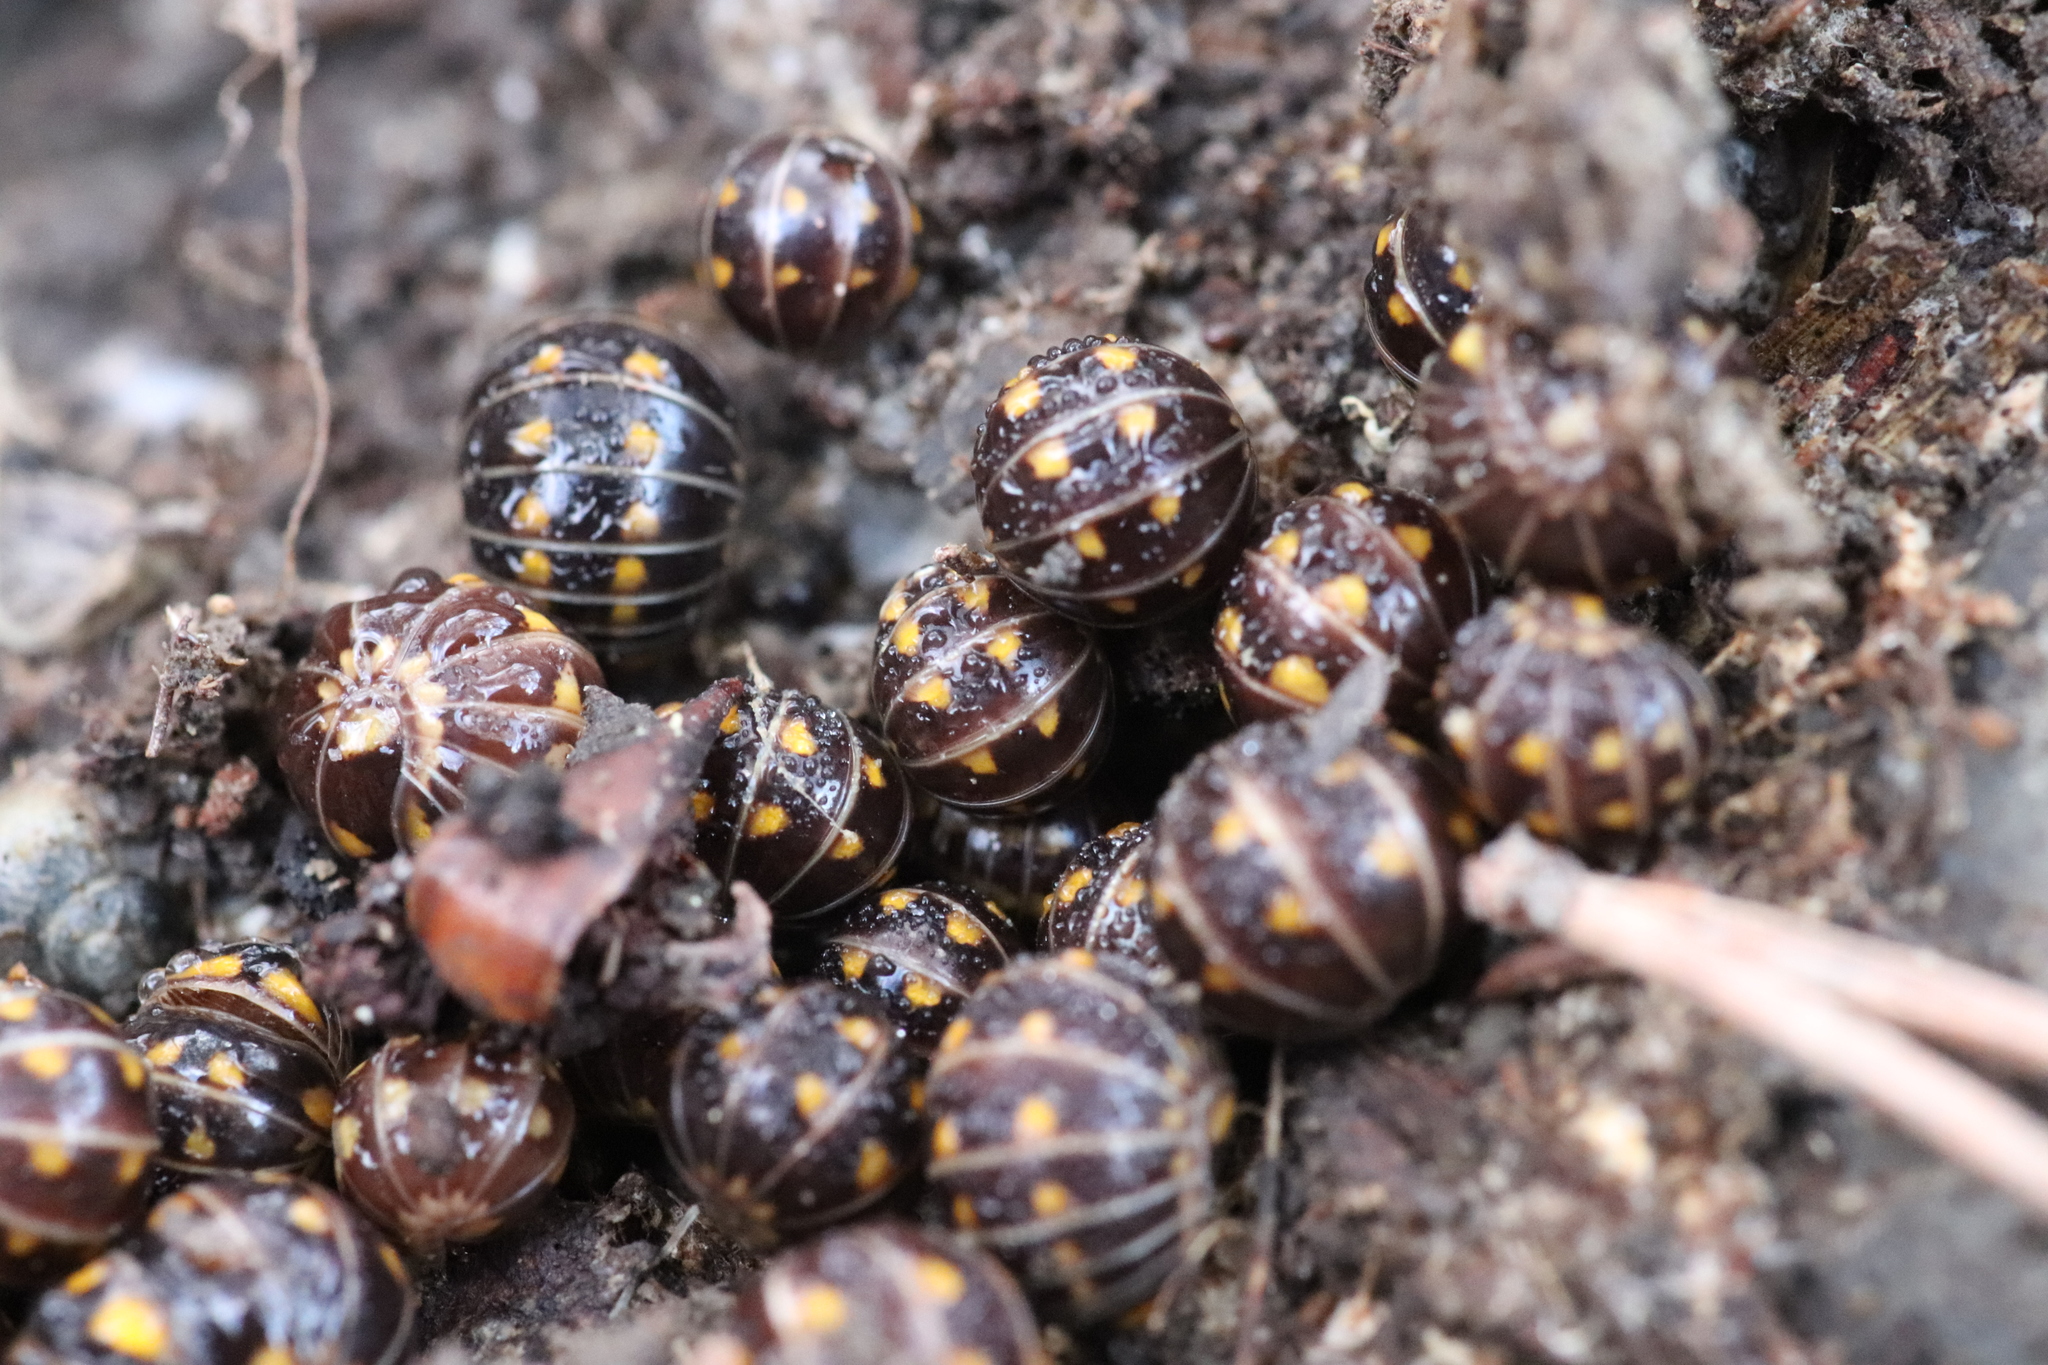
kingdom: Animalia
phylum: Arthropoda
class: Diplopoda
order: Glomerida
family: Glomeridae
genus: Glomeris
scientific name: Glomeris helvetica
